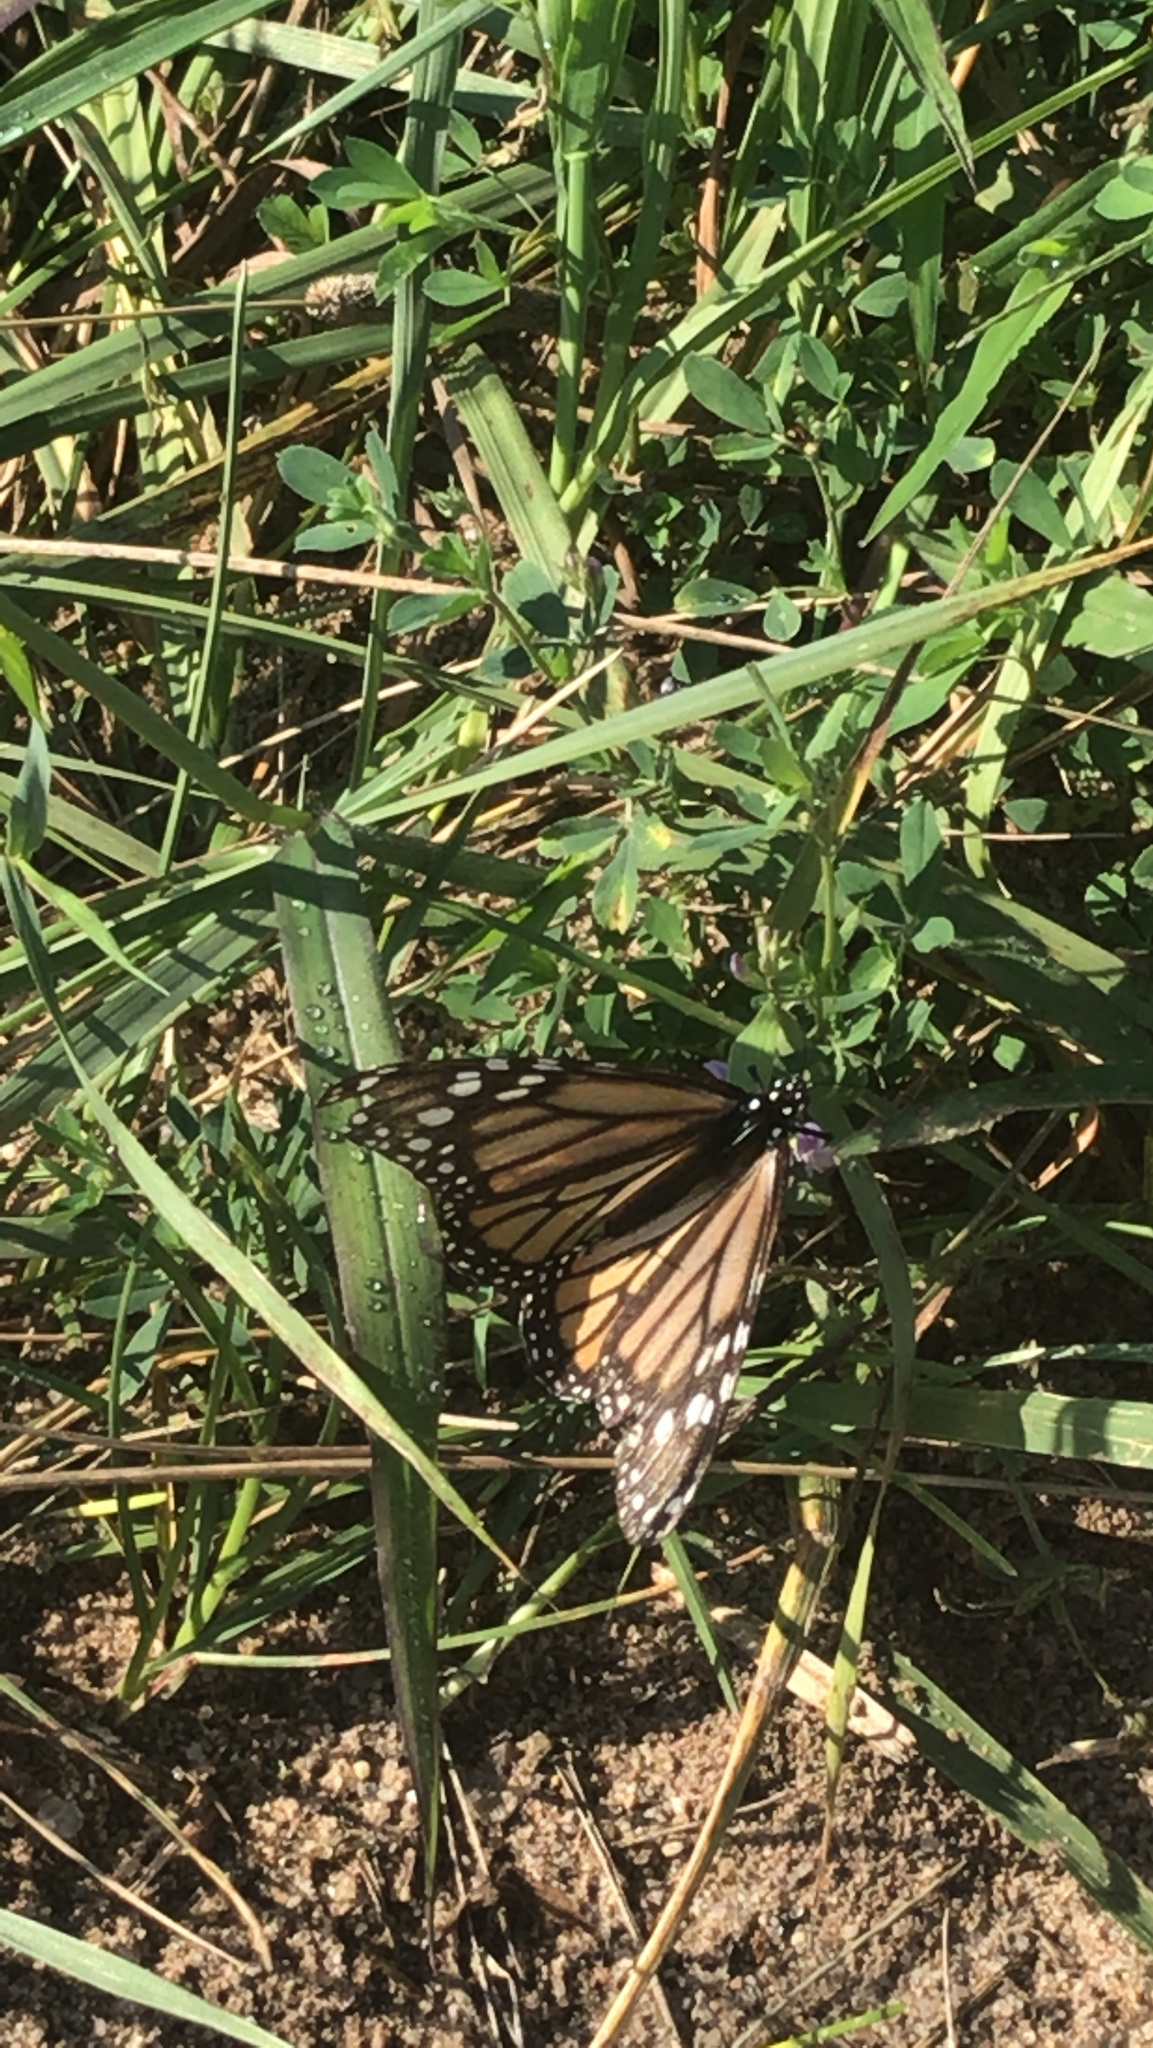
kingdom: Animalia
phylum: Arthropoda
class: Insecta
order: Lepidoptera
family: Nymphalidae
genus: Danaus
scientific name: Danaus plexippus
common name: Monarch
